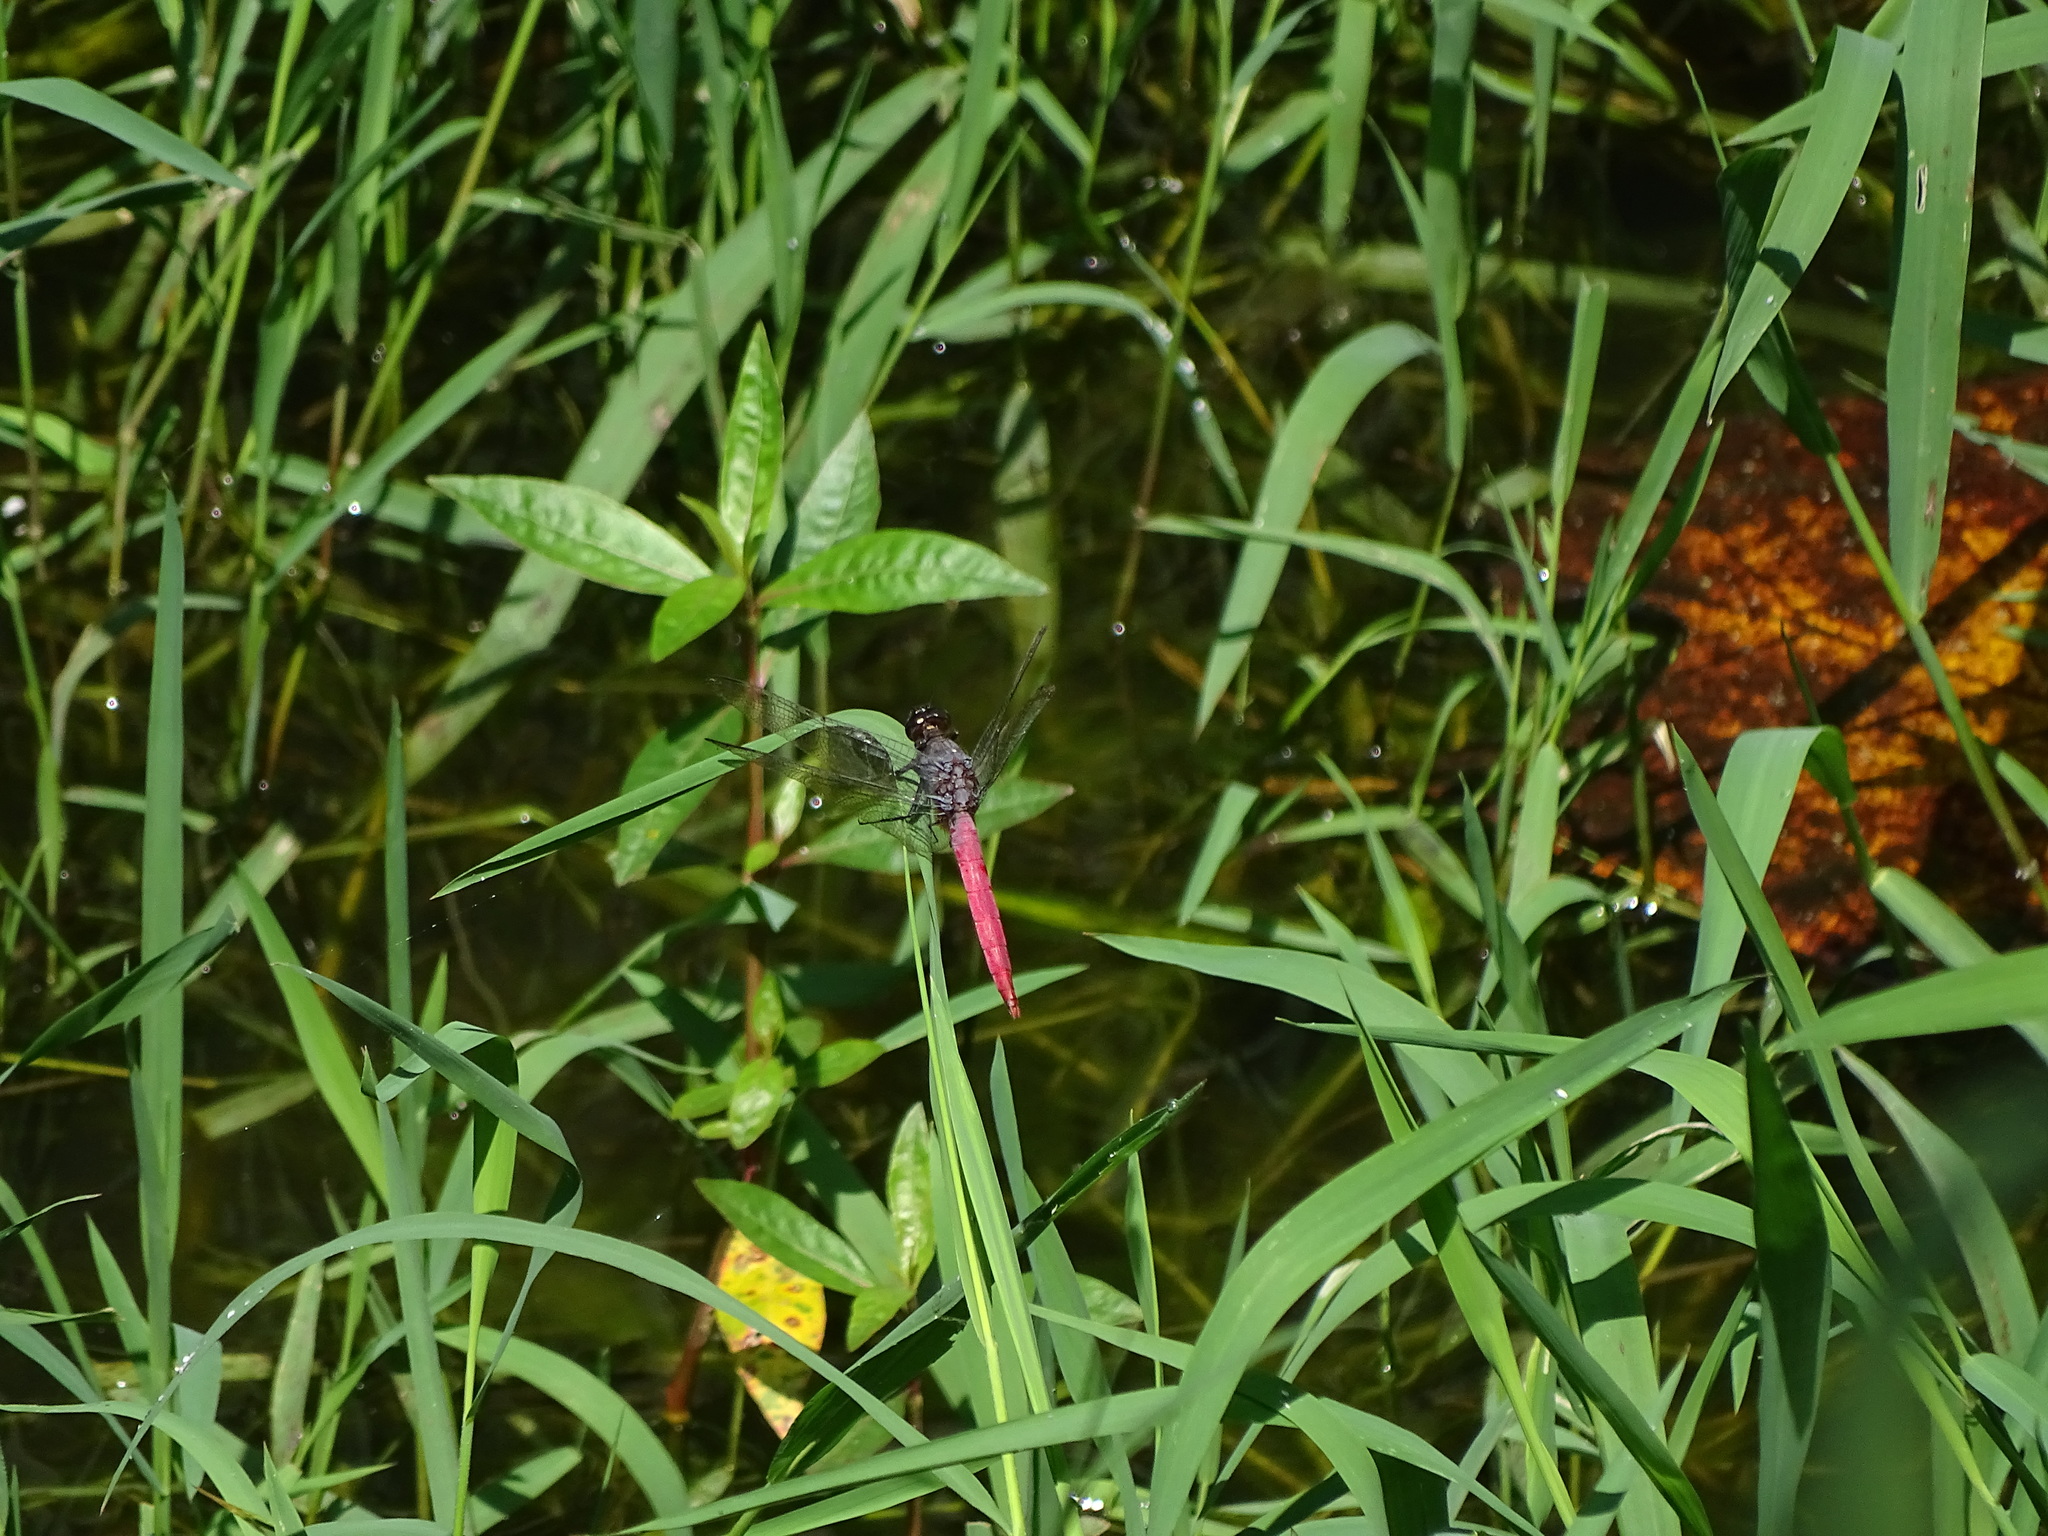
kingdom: Animalia
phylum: Arthropoda
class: Insecta
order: Odonata
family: Libellulidae
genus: Orthetrum
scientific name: Orthetrum pruinosum
